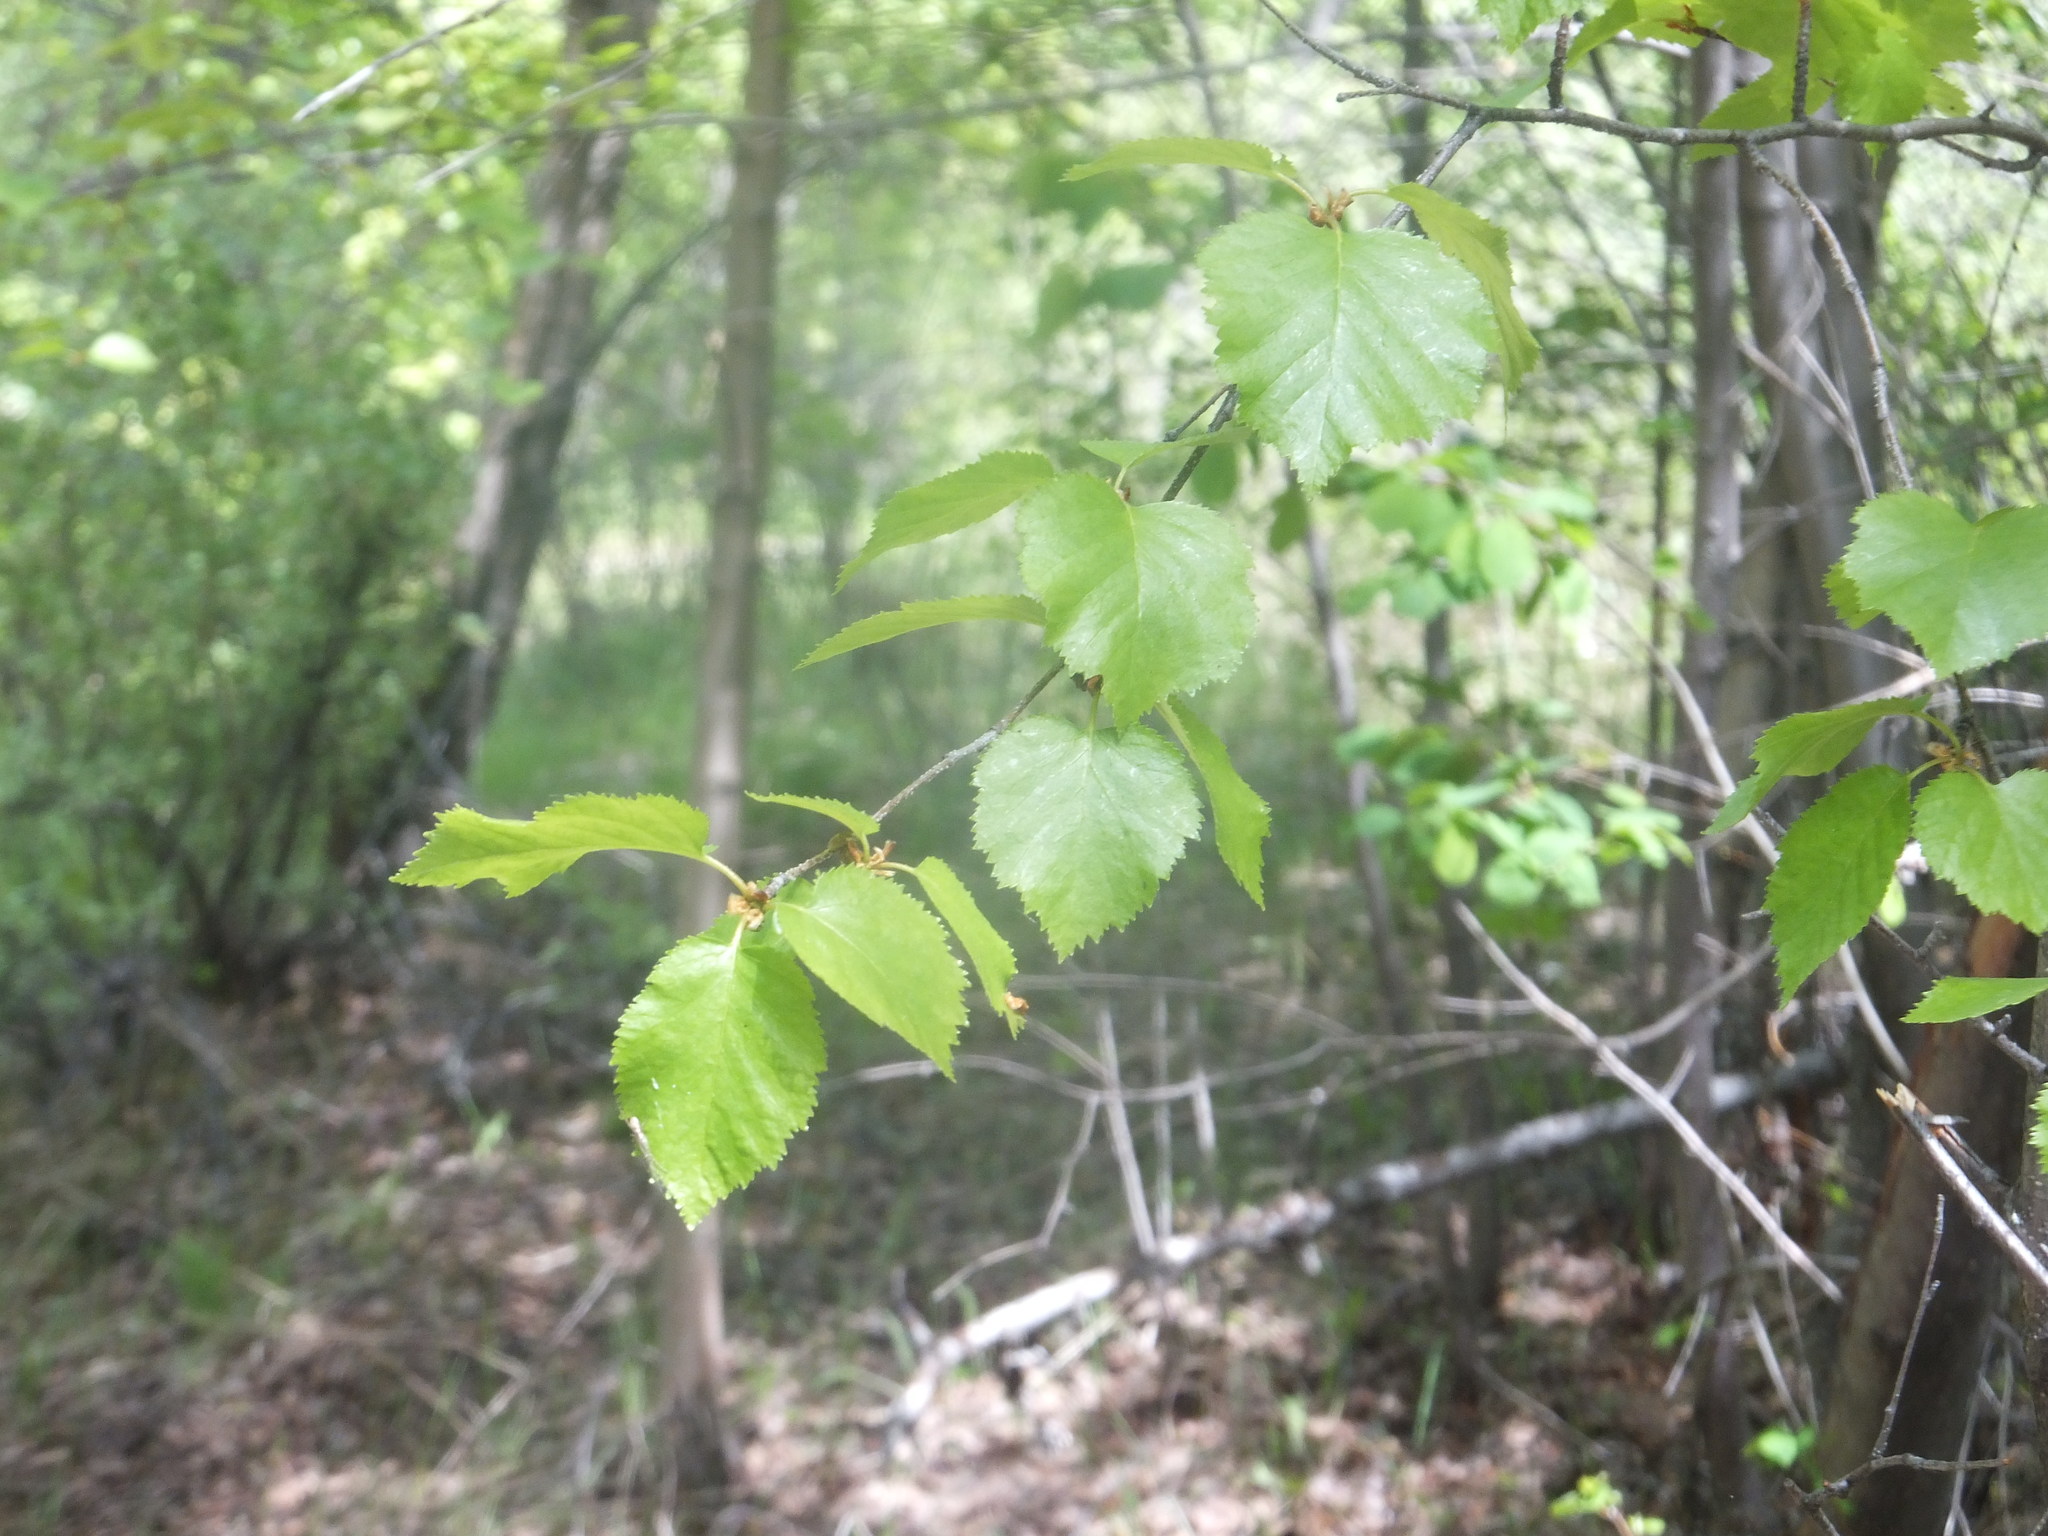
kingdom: Plantae
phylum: Tracheophyta
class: Magnoliopsida
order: Fagales
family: Betulaceae
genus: Betula
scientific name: Betula occidentalis
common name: River birch
